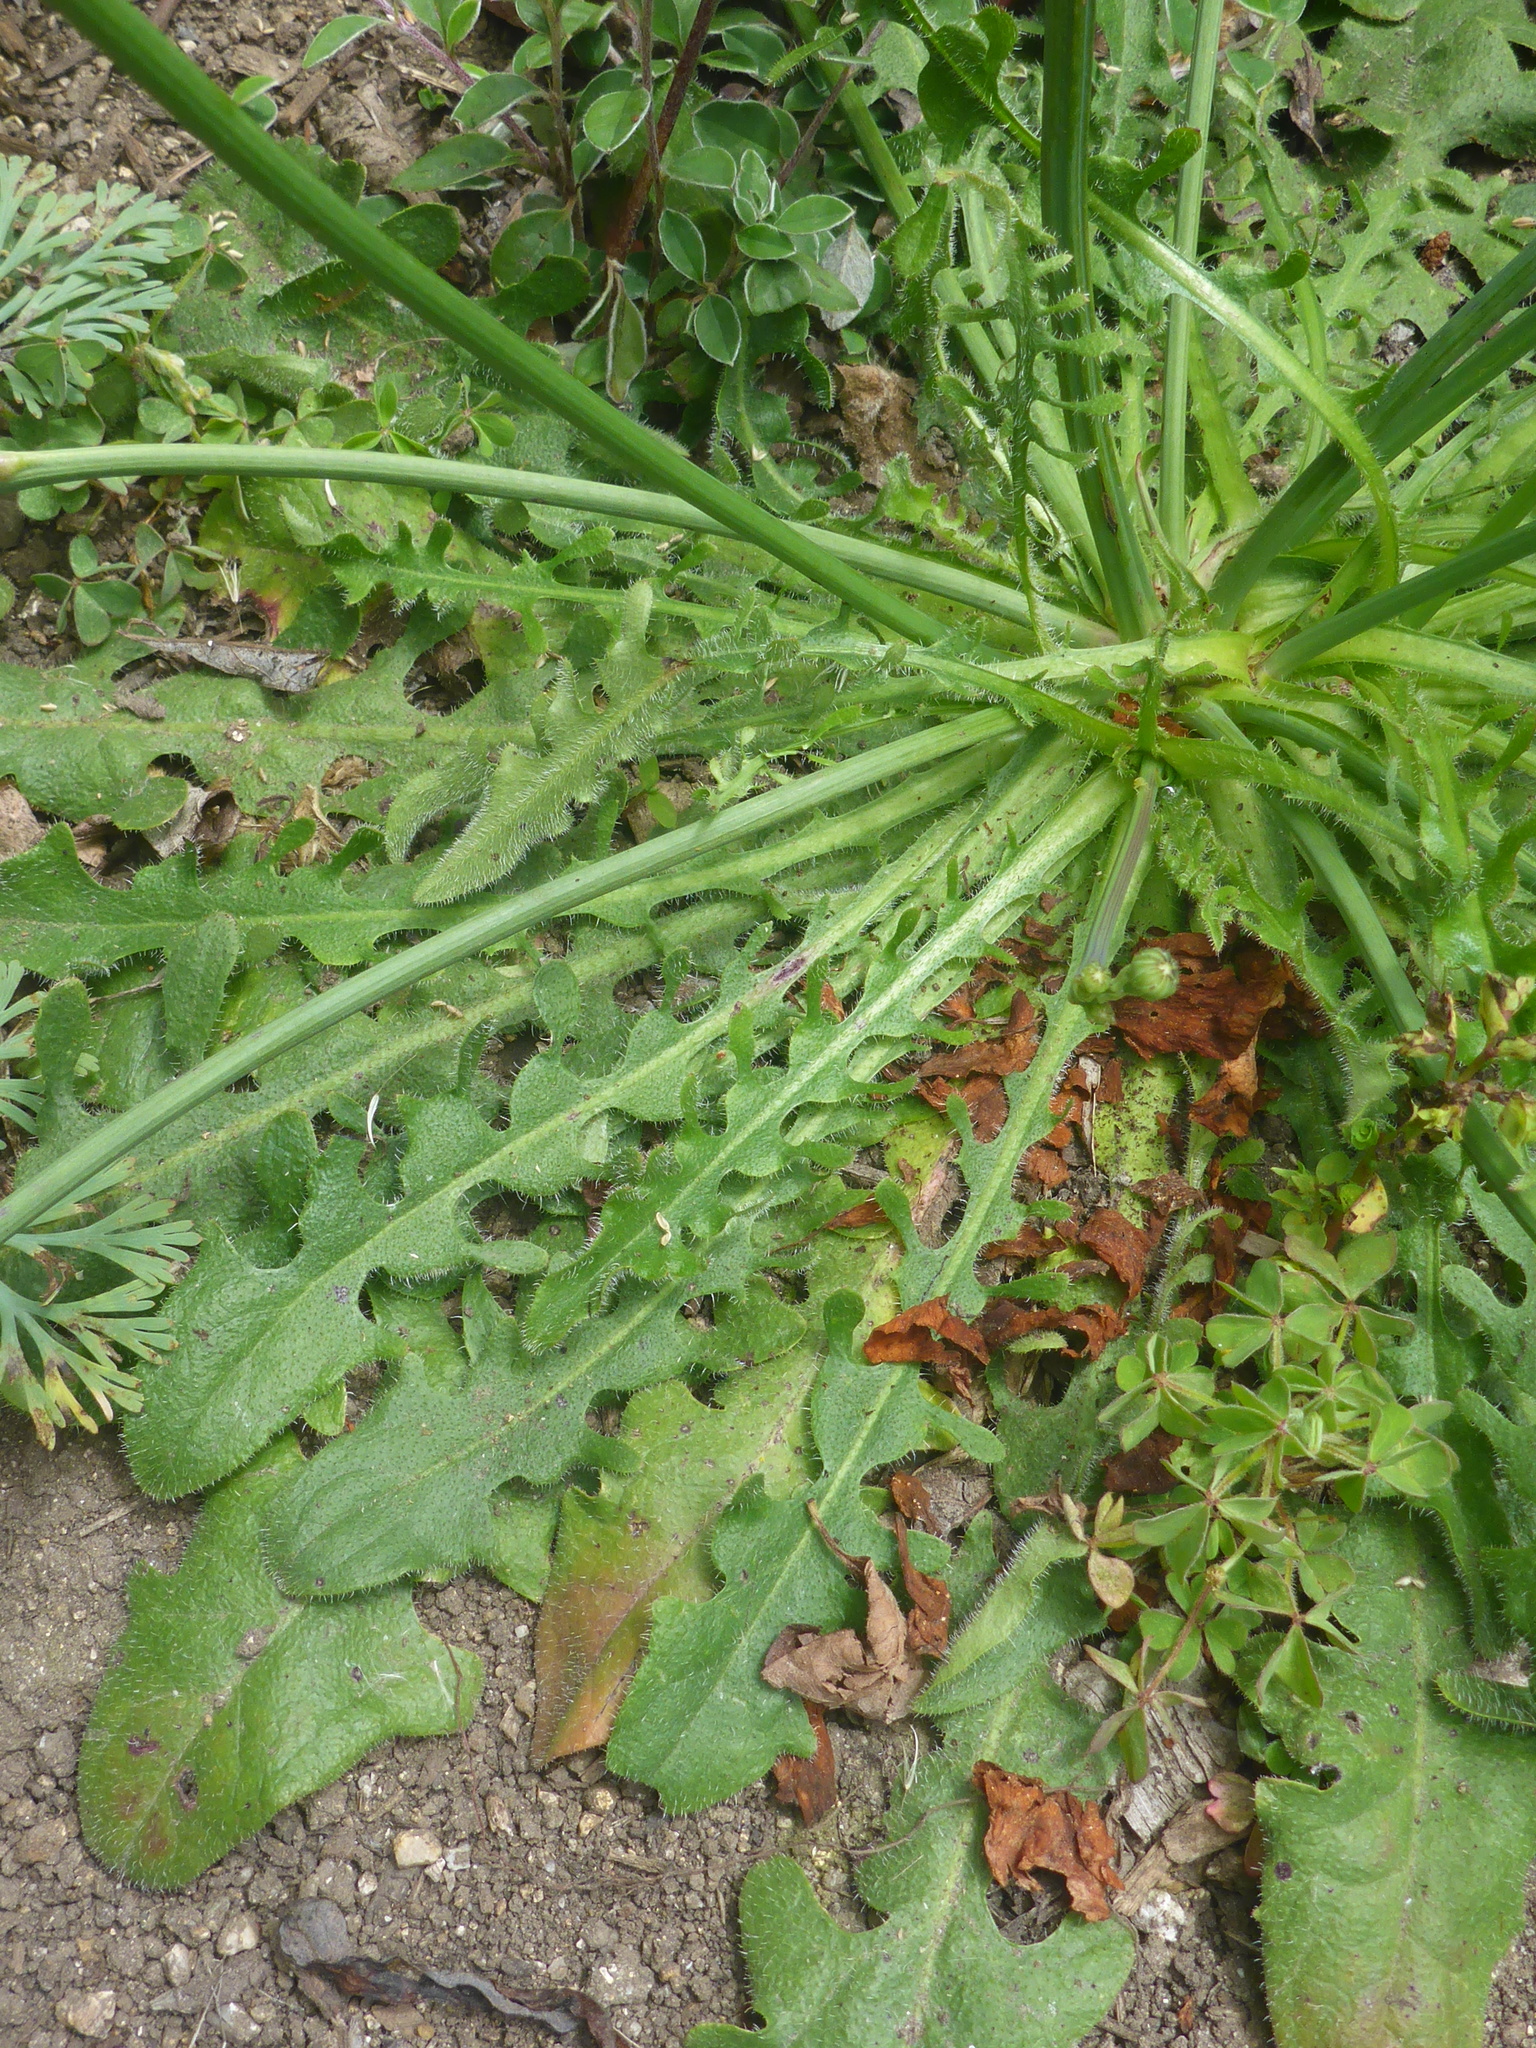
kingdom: Plantae
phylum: Tracheophyta
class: Magnoliopsida
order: Asterales
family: Asteraceae
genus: Hypochaeris
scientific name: Hypochaeris radicata
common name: Flatweed
